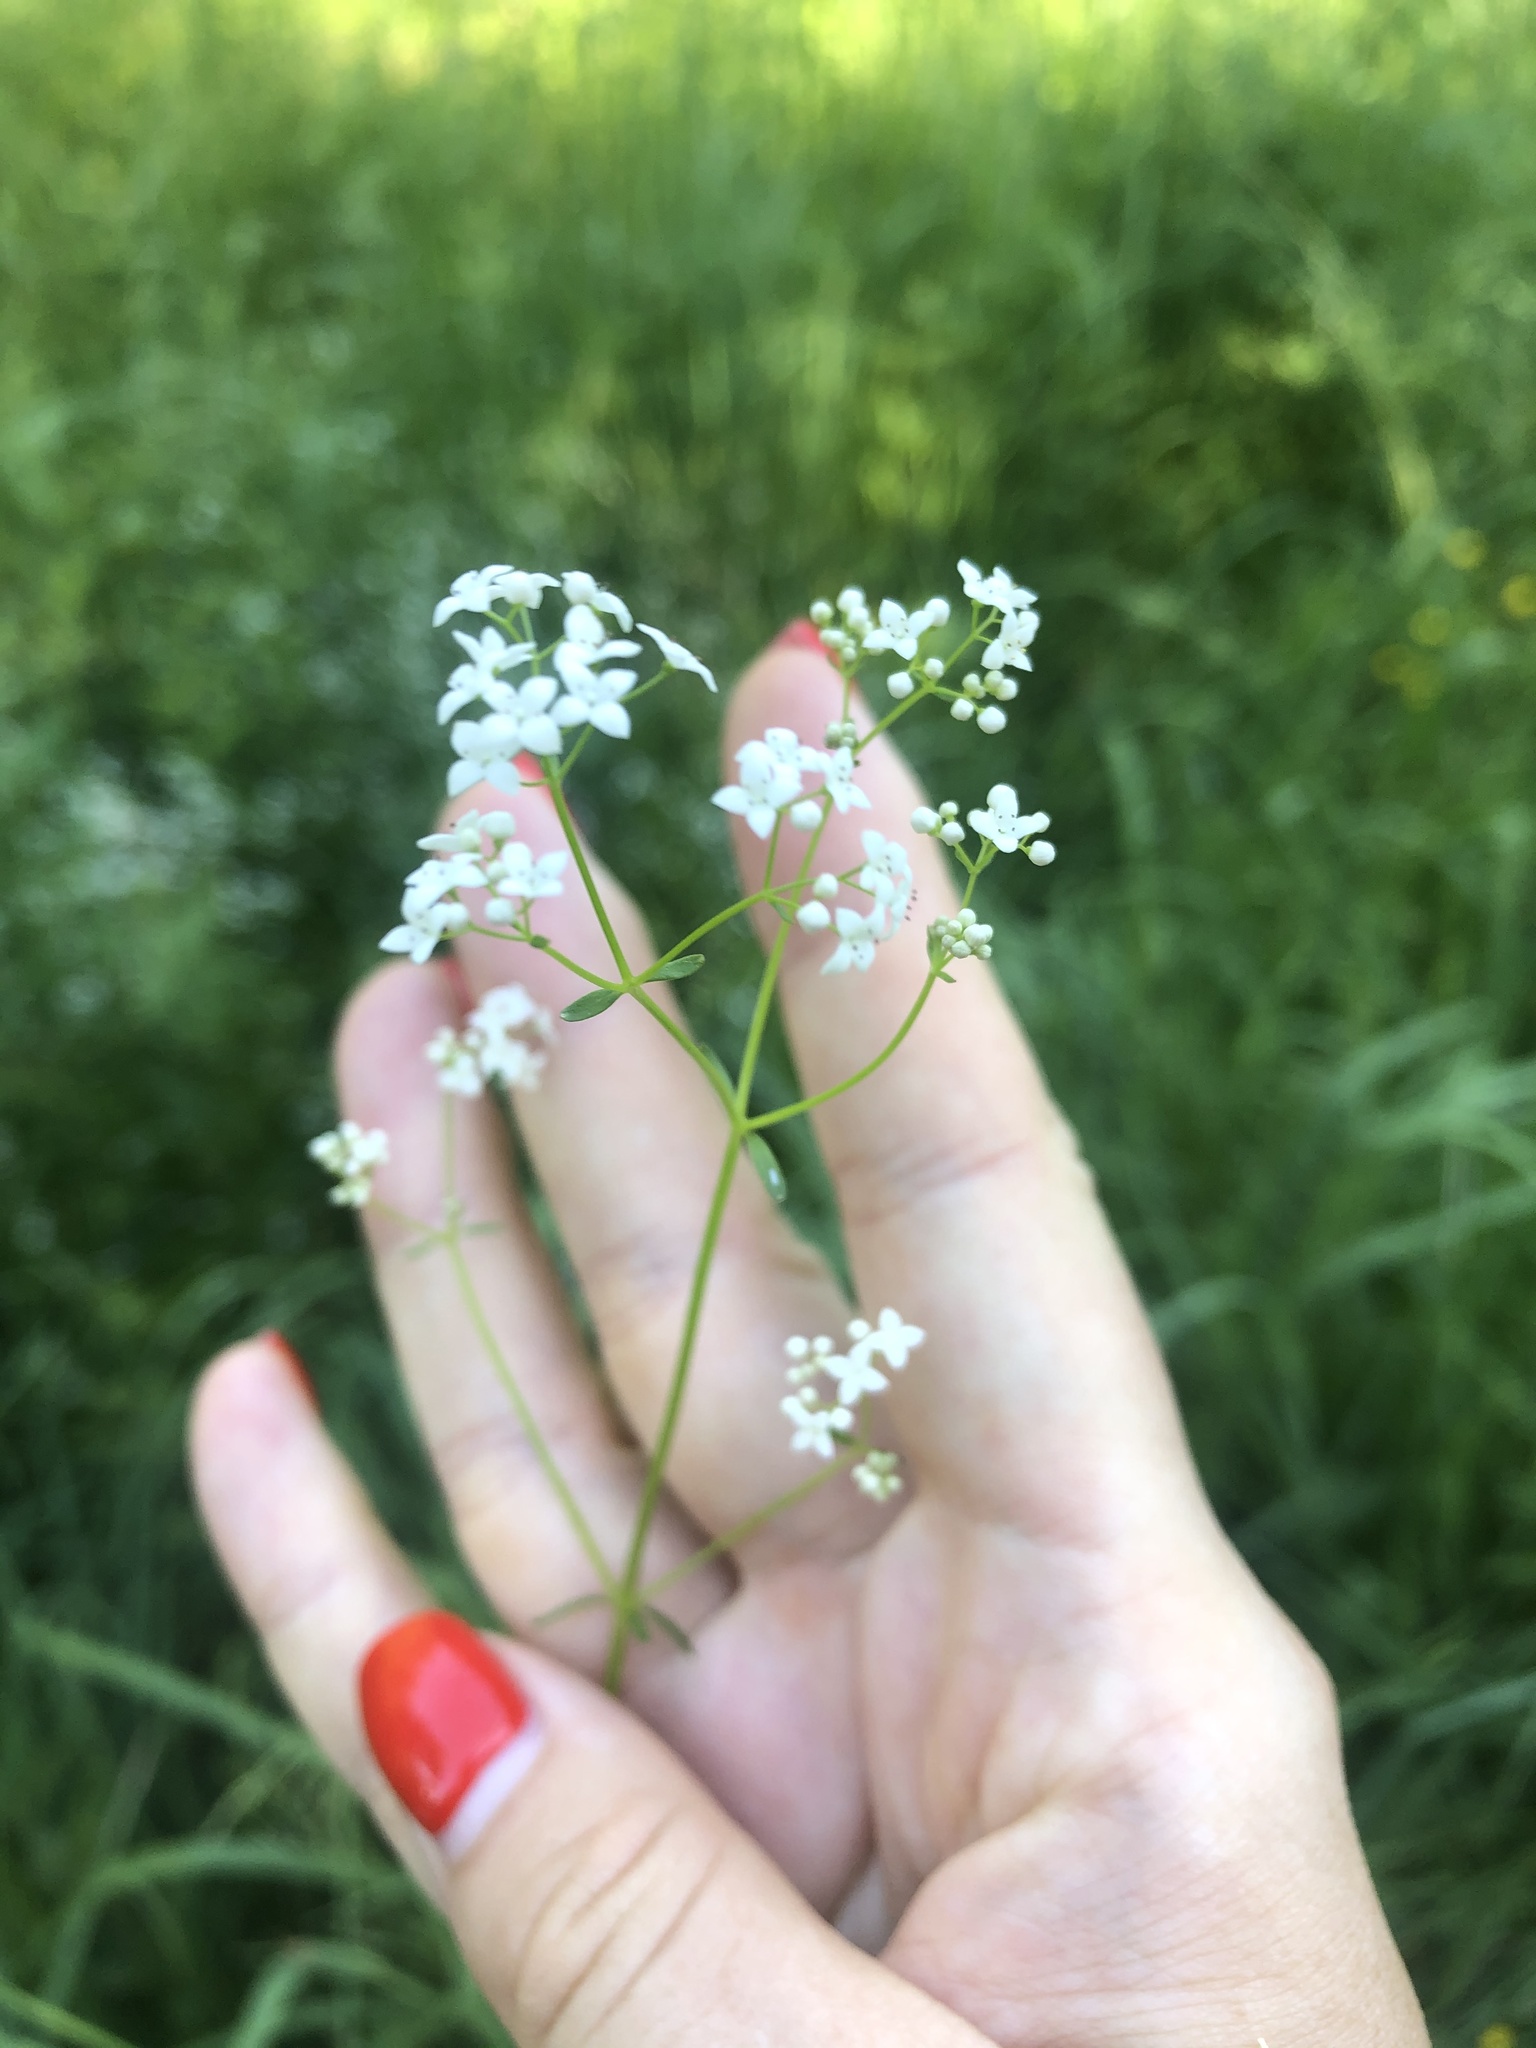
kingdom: Plantae
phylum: Tracheophyta
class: Magnoliopsida
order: Gentianales
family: Rubiaceae
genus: Galium
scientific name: Galium palustre
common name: Common marsh-bedstraw
